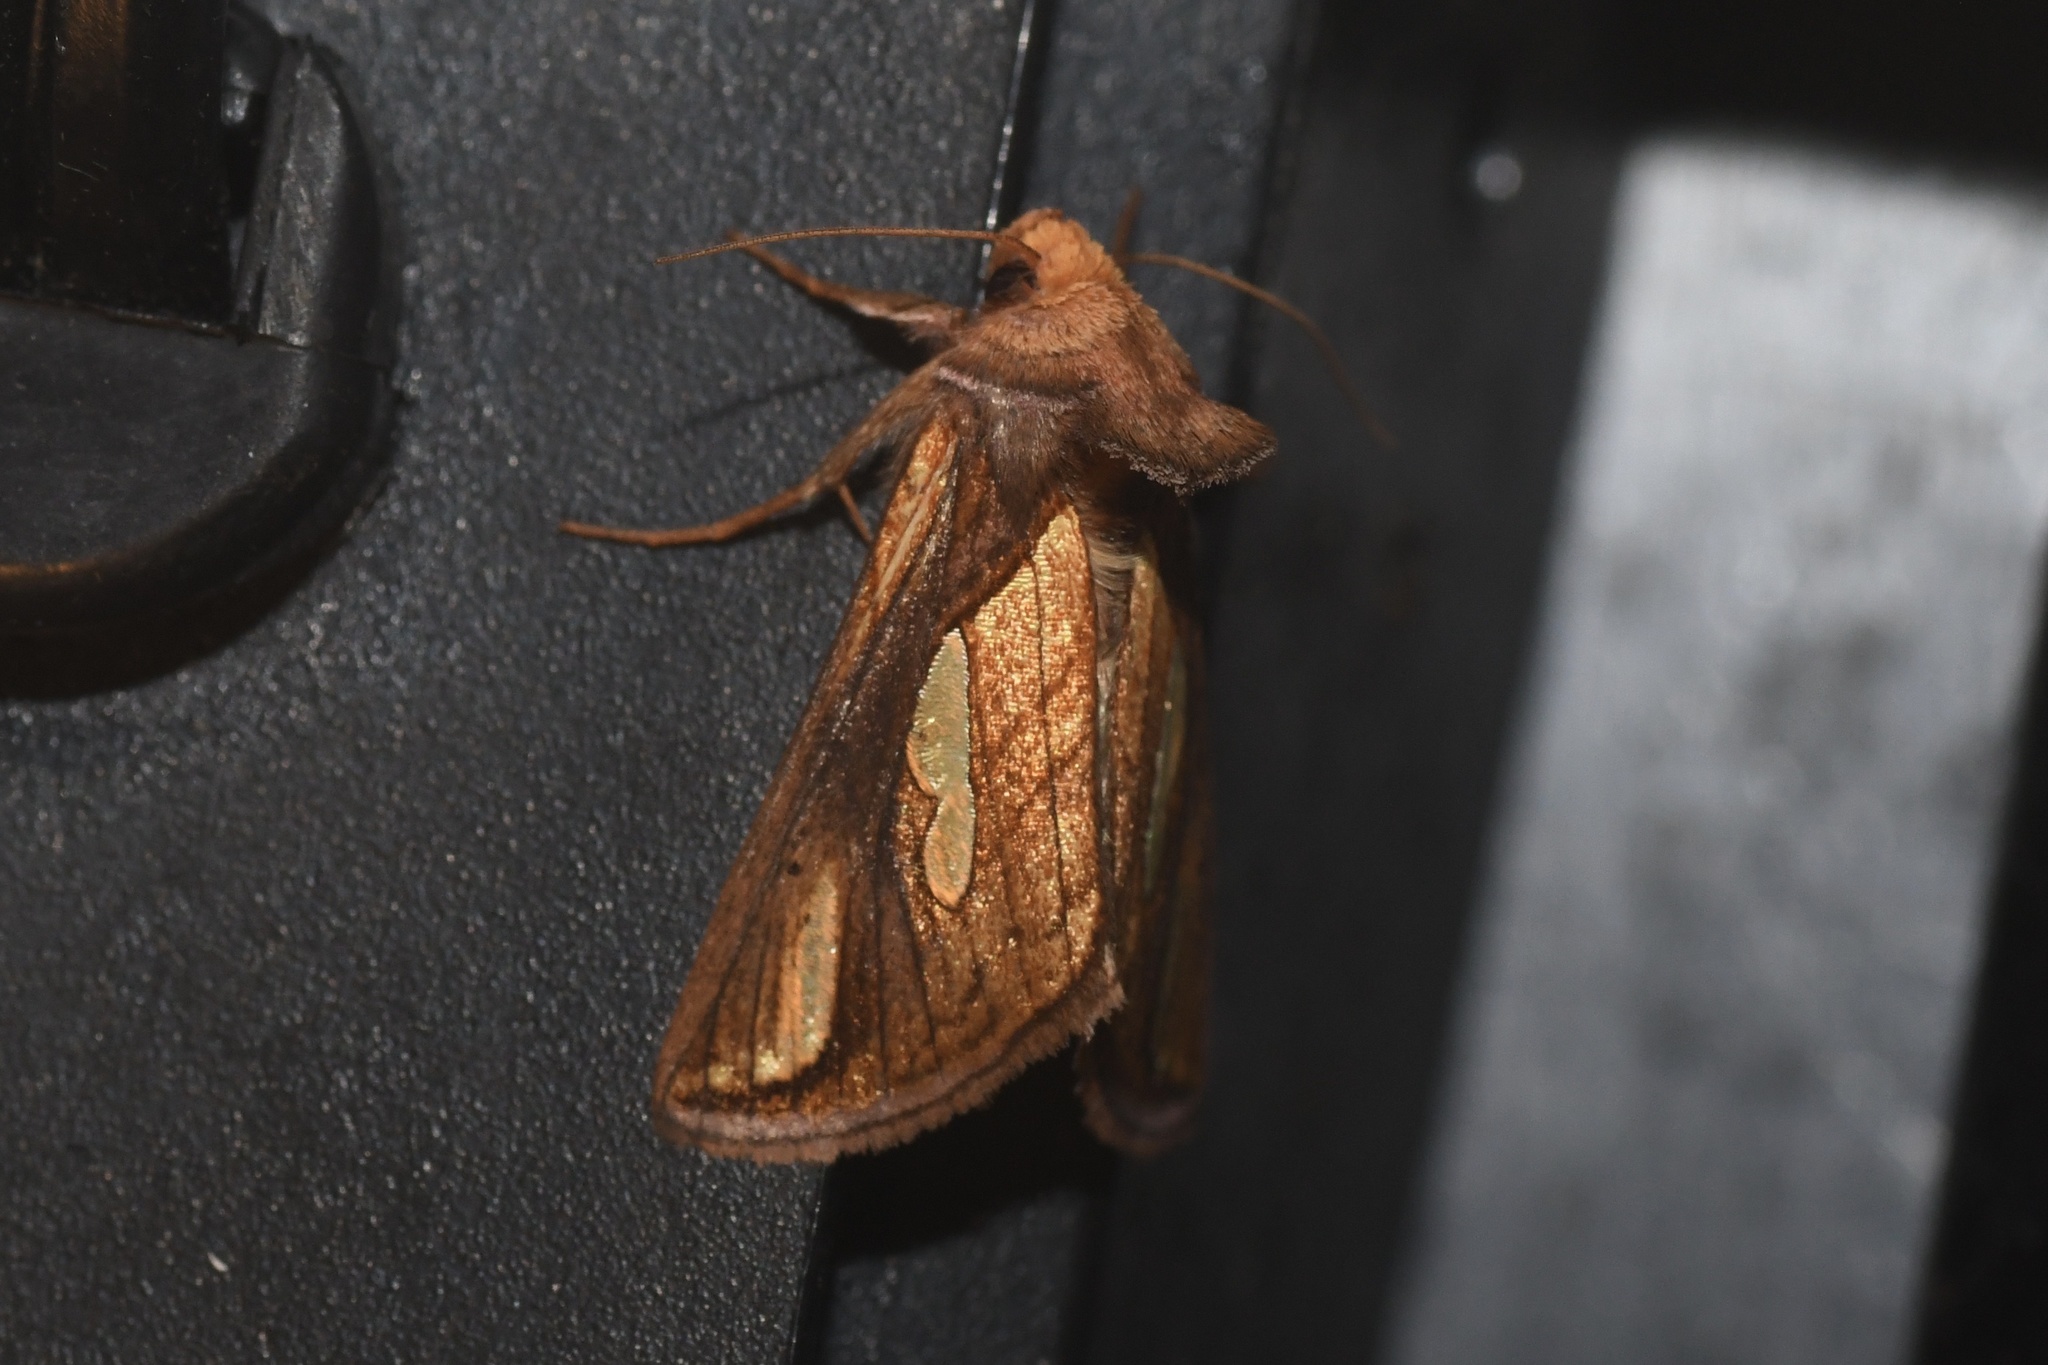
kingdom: Animalia
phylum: Arthropoda
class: Insecta
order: Lepidoptera
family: Noctuidae
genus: Plusia
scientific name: Plusia contexta
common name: Connected looper moth
